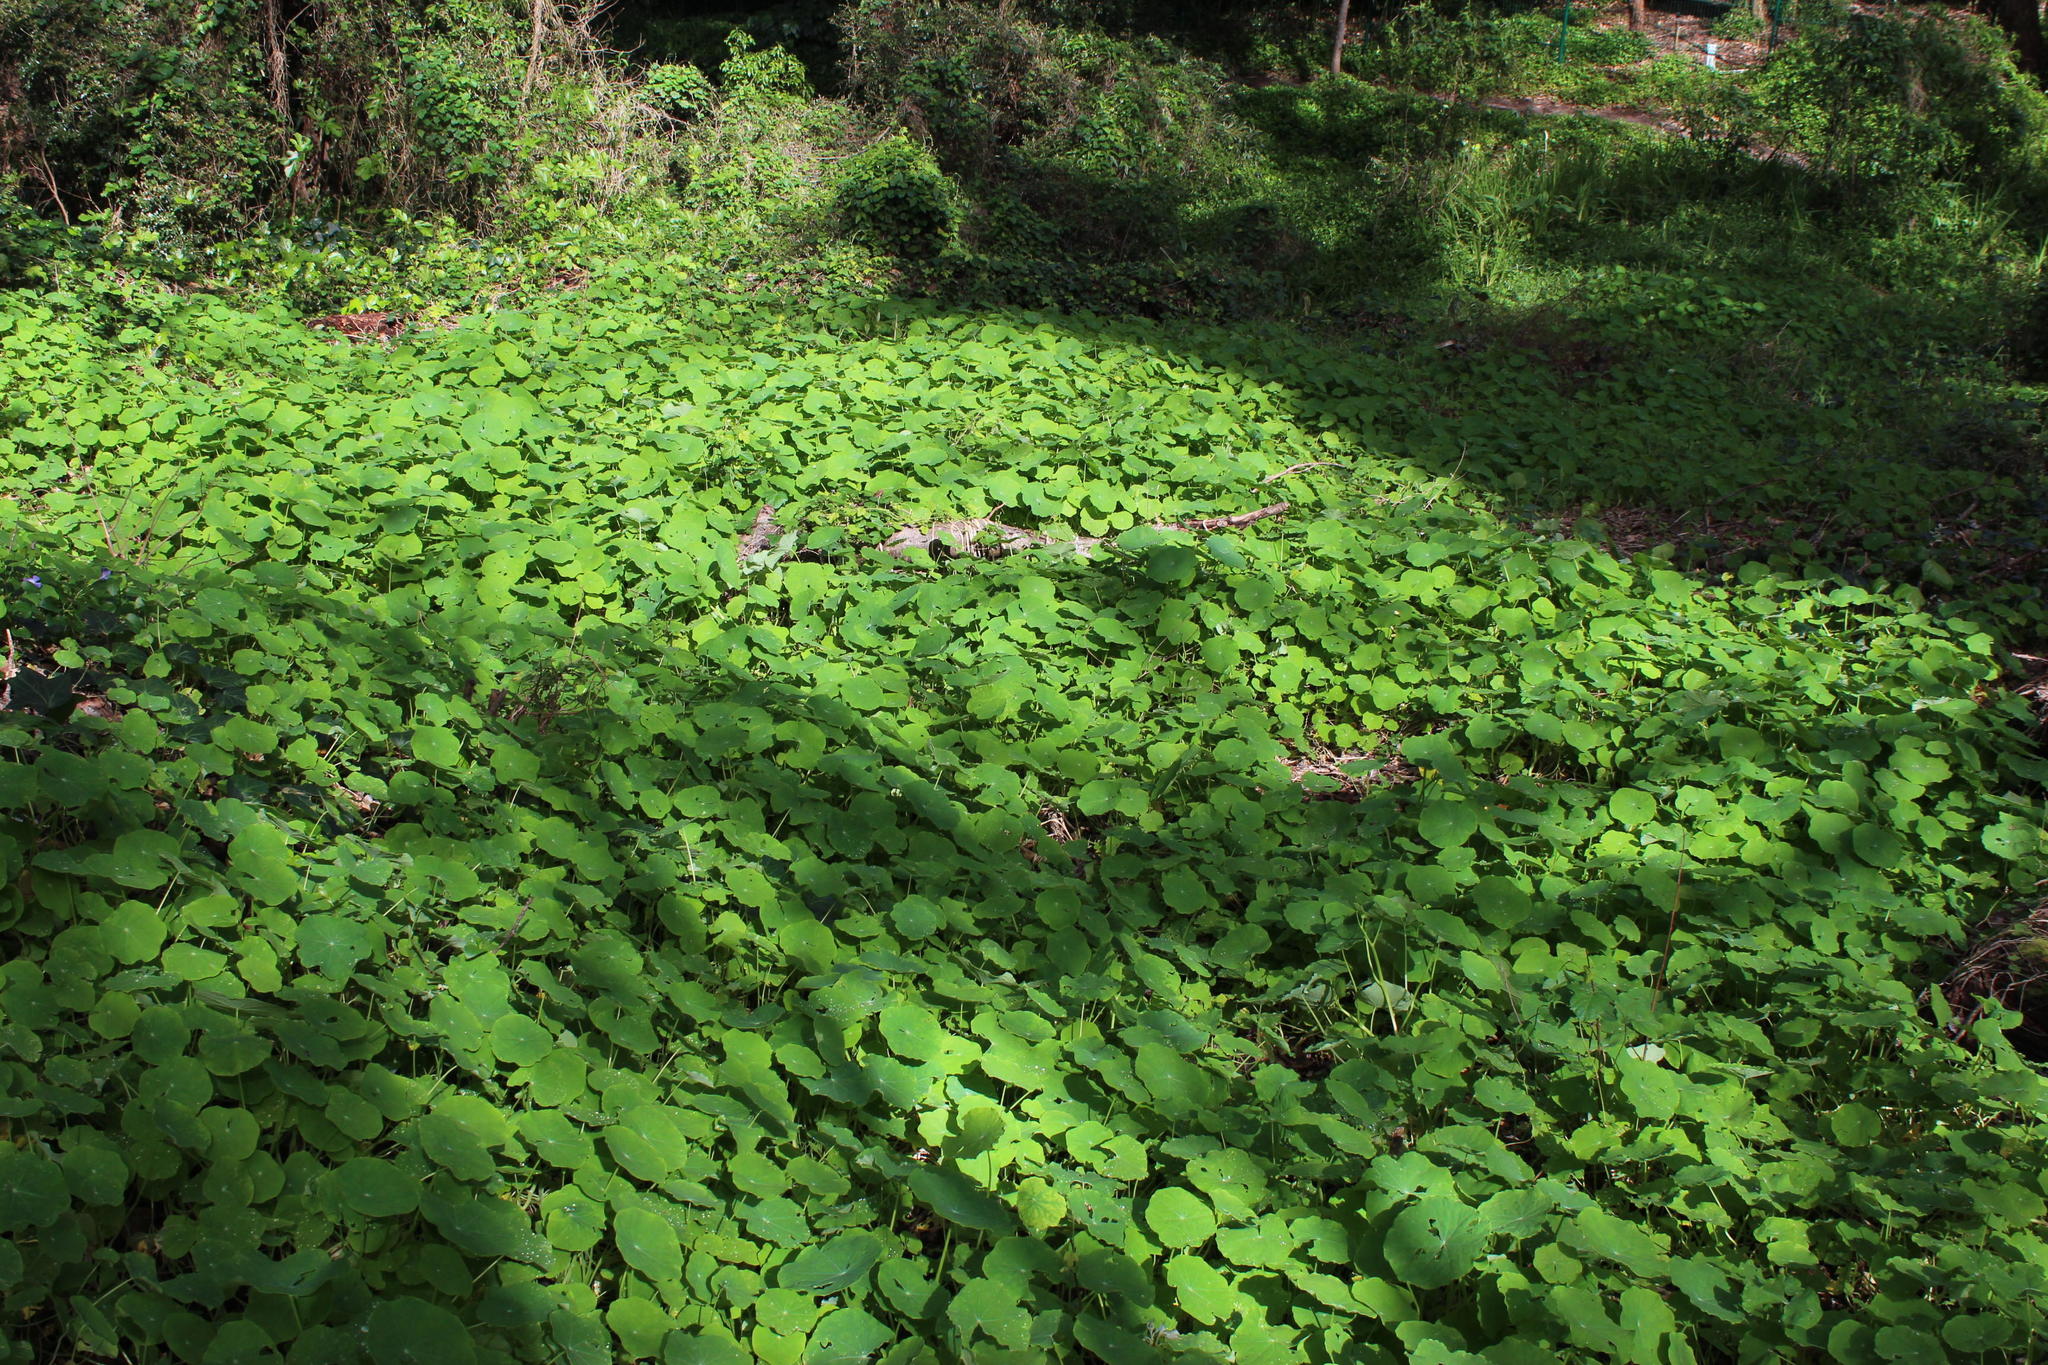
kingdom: Plantae
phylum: Tracheophyta
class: Magnoliopsida
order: Brassicales
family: Tropaeolaceae
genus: Tropaeolum
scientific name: Tropaeolum majus
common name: Nasturtium
